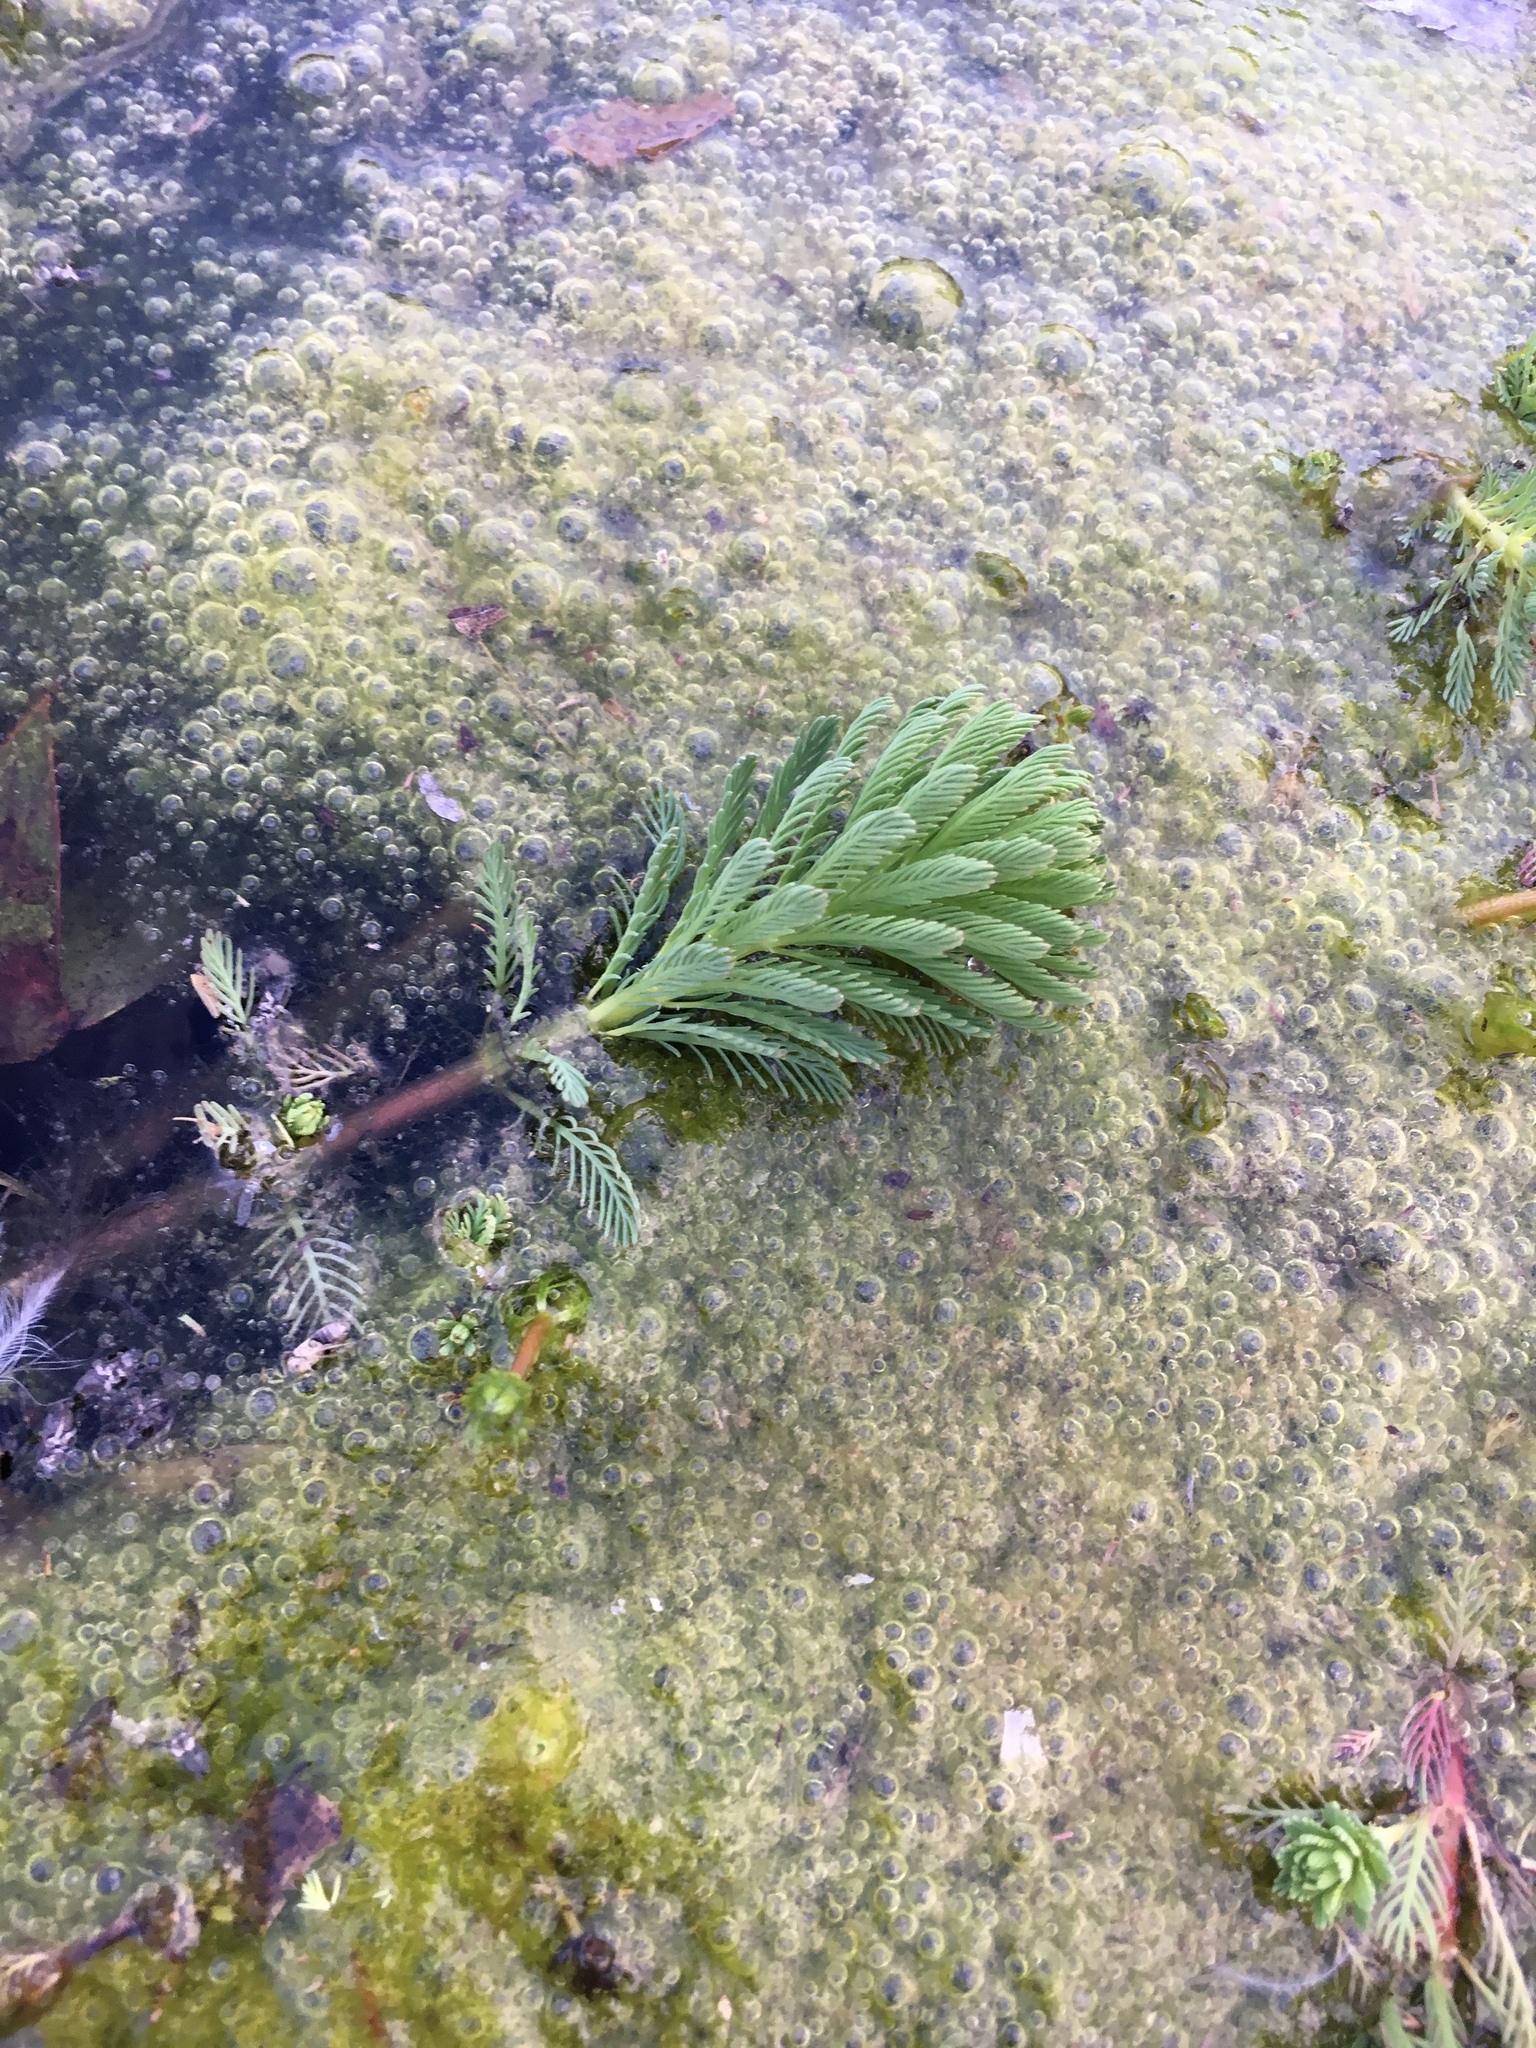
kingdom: Plantae
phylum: Tracheophyta
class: Magnoliopsida
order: Saxifragales
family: Haloragaceae
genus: Myriophyllum
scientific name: Myriophyllum aquaticum
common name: Parrot's feather
